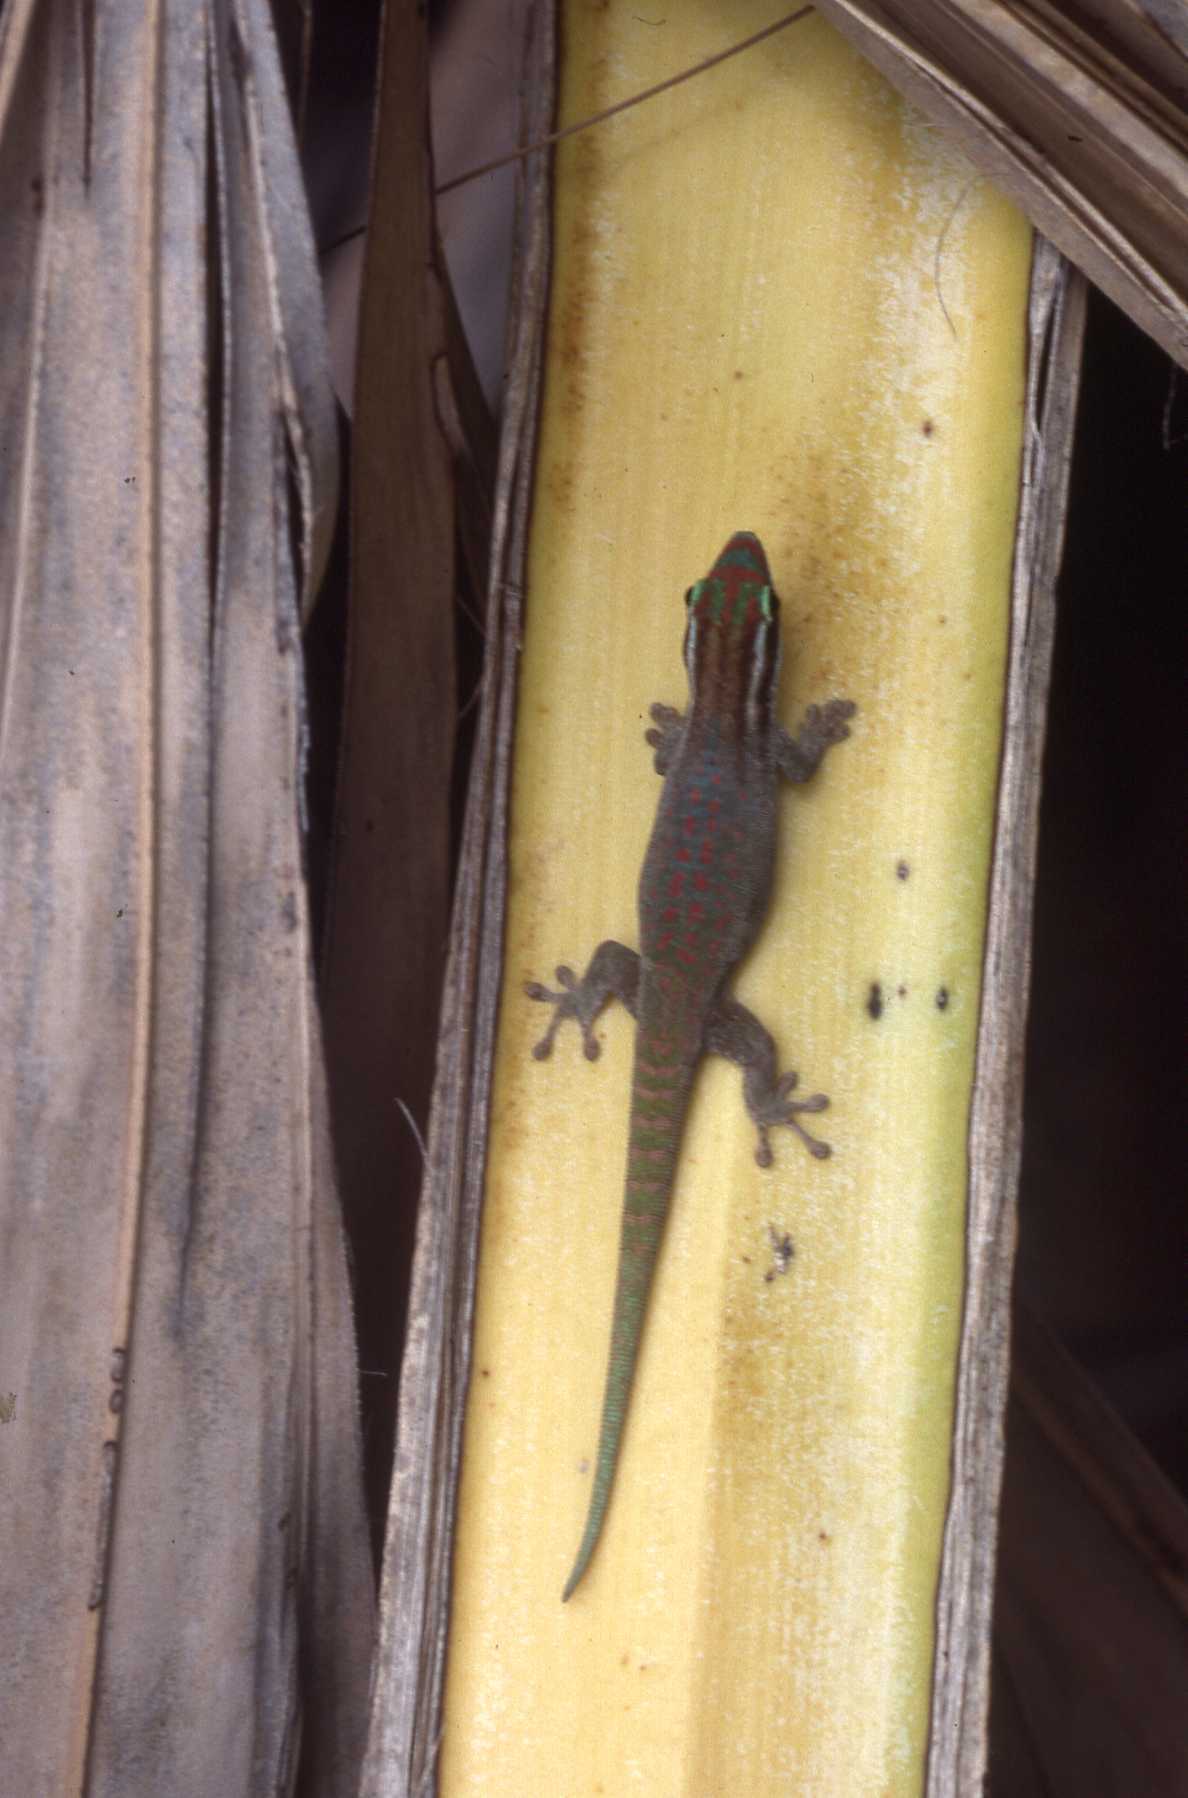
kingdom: Animalia
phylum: Chordata
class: Squamata
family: Gekkonidae
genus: Phelsuma
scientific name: Phelsuma ornata
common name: Ornate day gecko
